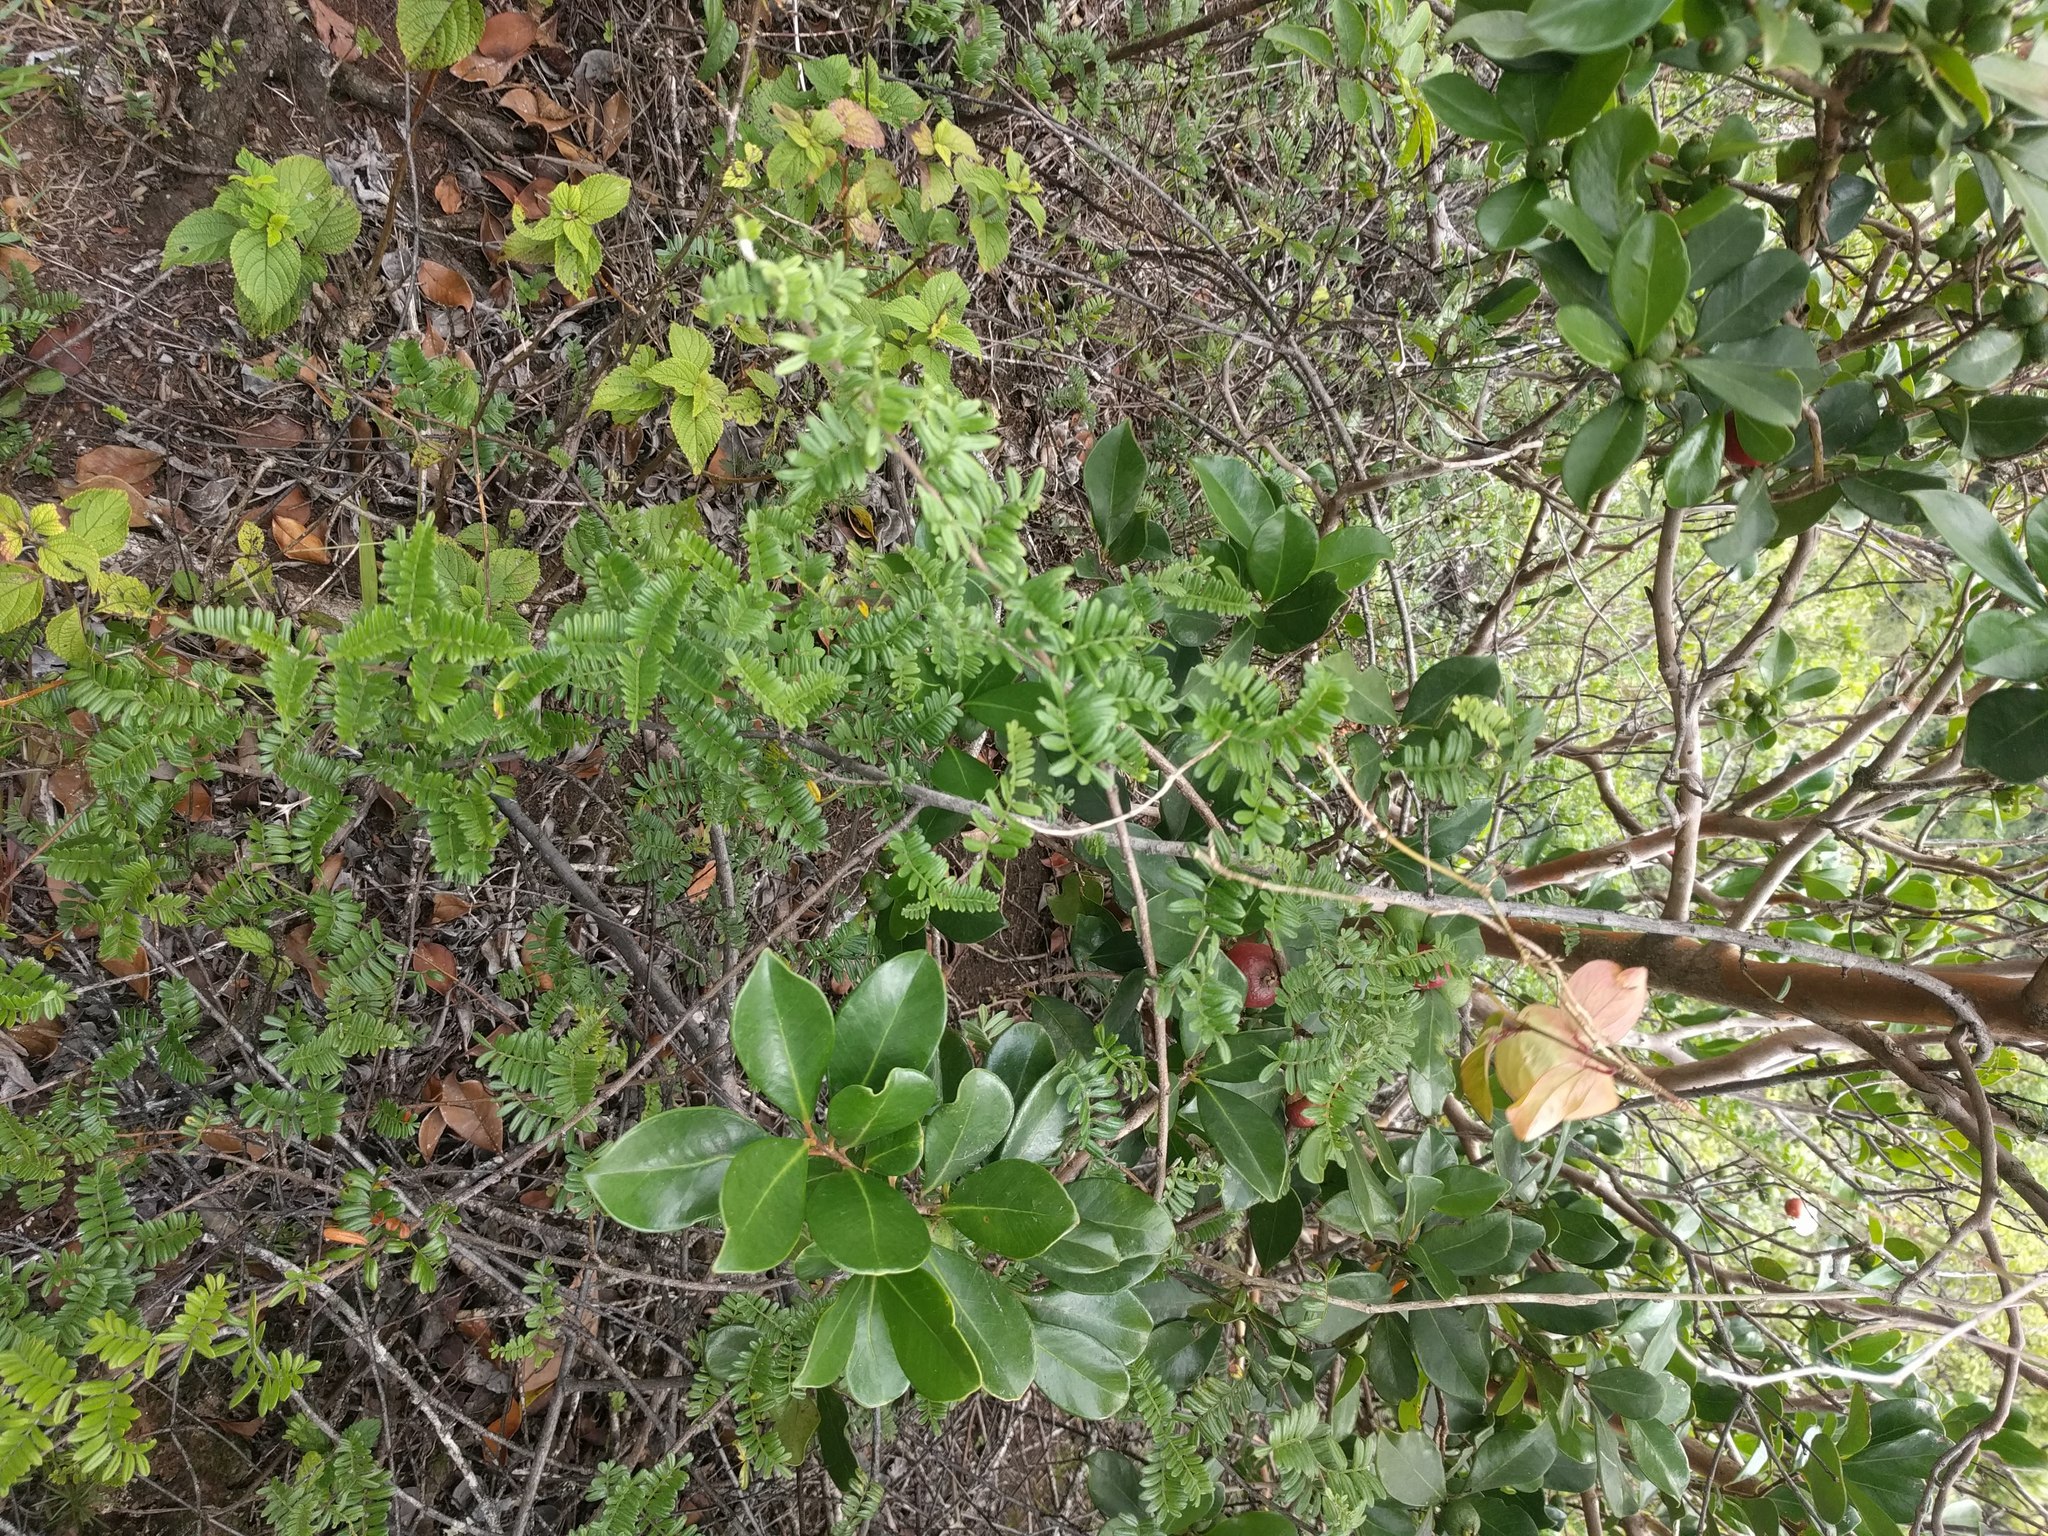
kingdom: Plantae
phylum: Tracheophyta
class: Magnoliopsida
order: Rosales
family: Rosaceae
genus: Osteomeles
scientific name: Osteomeles anthyllidifolia
